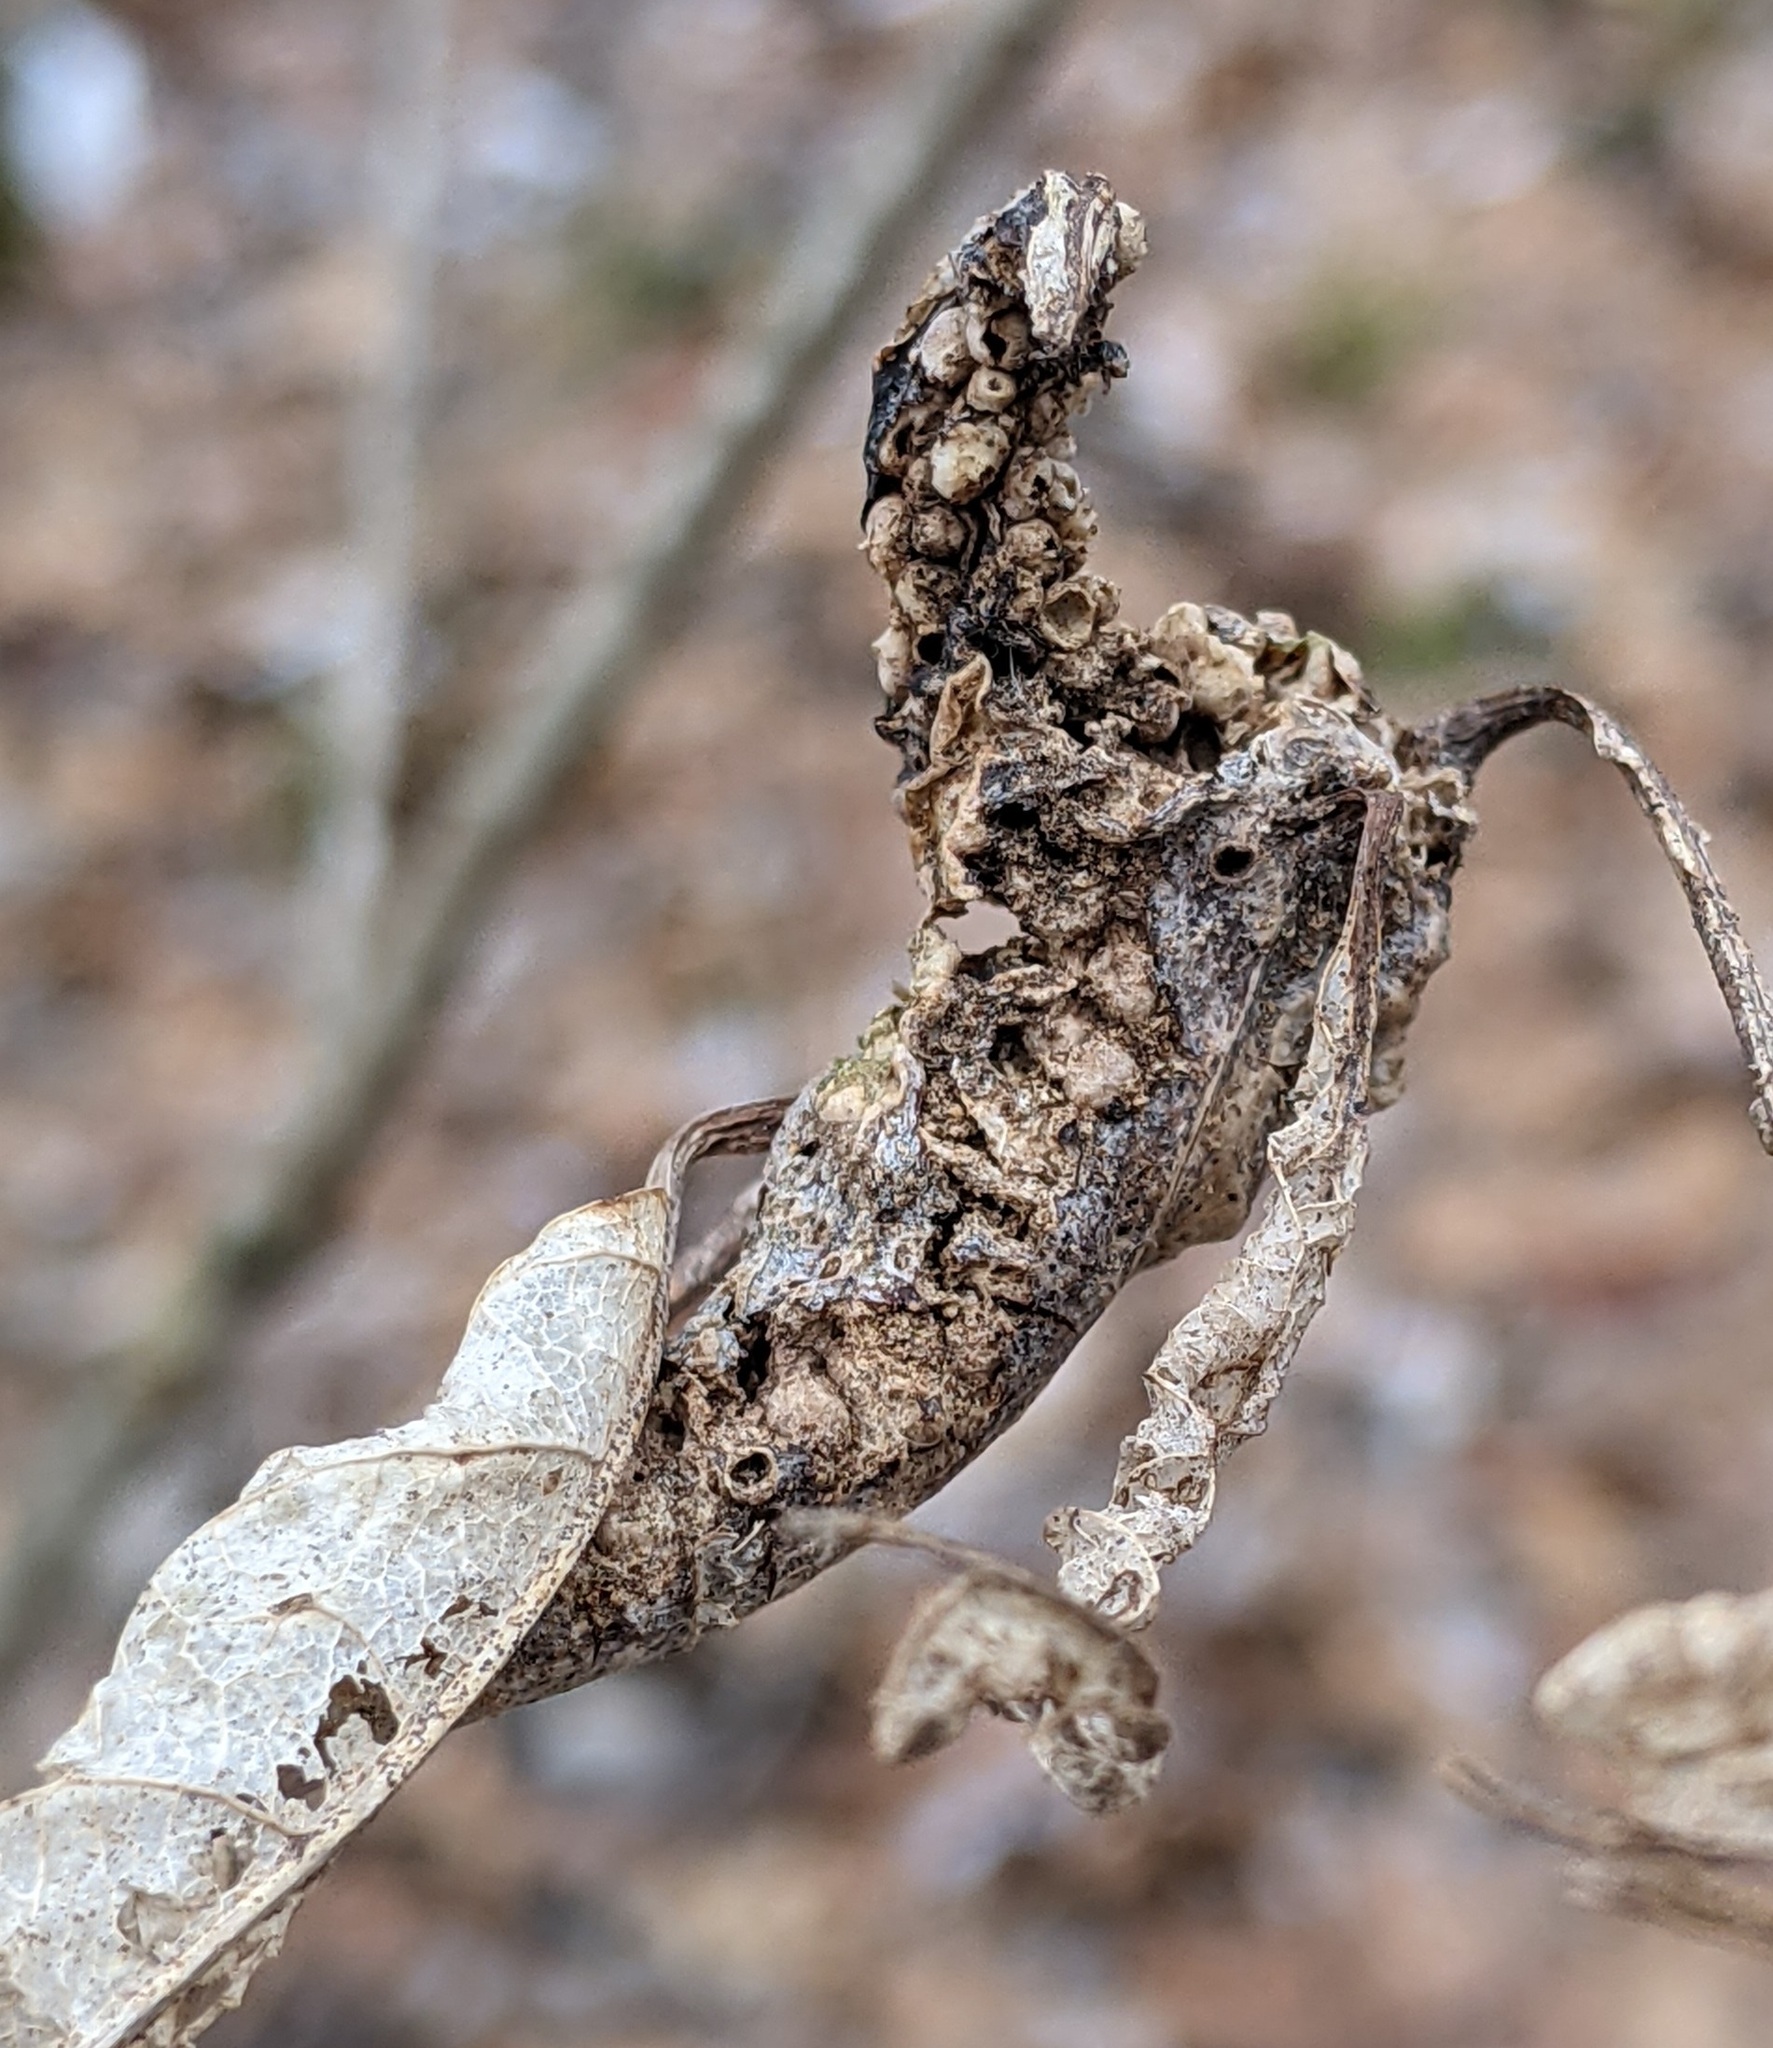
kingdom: Animalia
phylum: Arthropoda
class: Insecta
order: Hymenoptera
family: Cynipidae
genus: Neuroterus
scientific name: Neuroterus quercusbaccarum
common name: Common spangle gall
